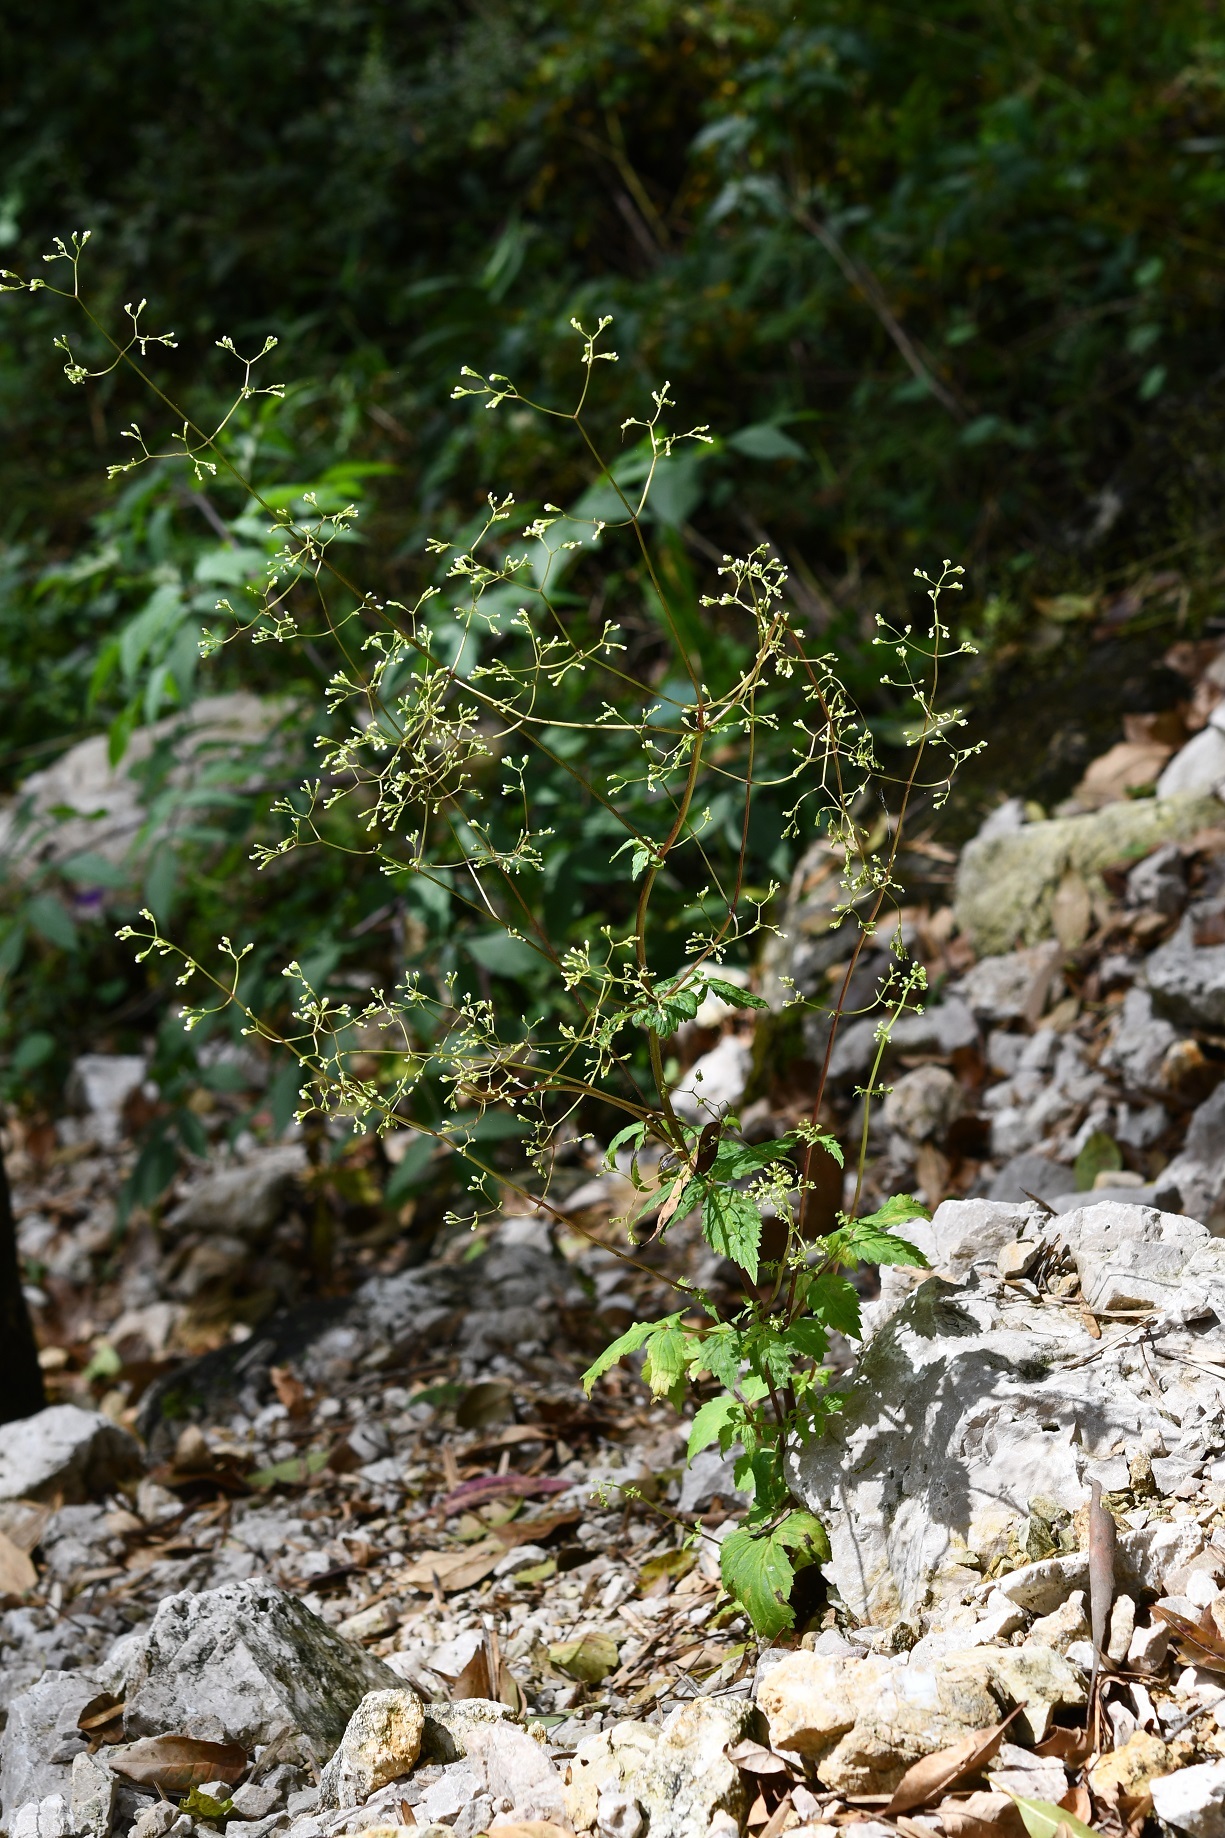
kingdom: Plantae
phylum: Tracheophyta
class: Magnoliopsida
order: Dipsacales
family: Caprifoliaceae
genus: Valeriana
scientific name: Valeriana sorbifolia
